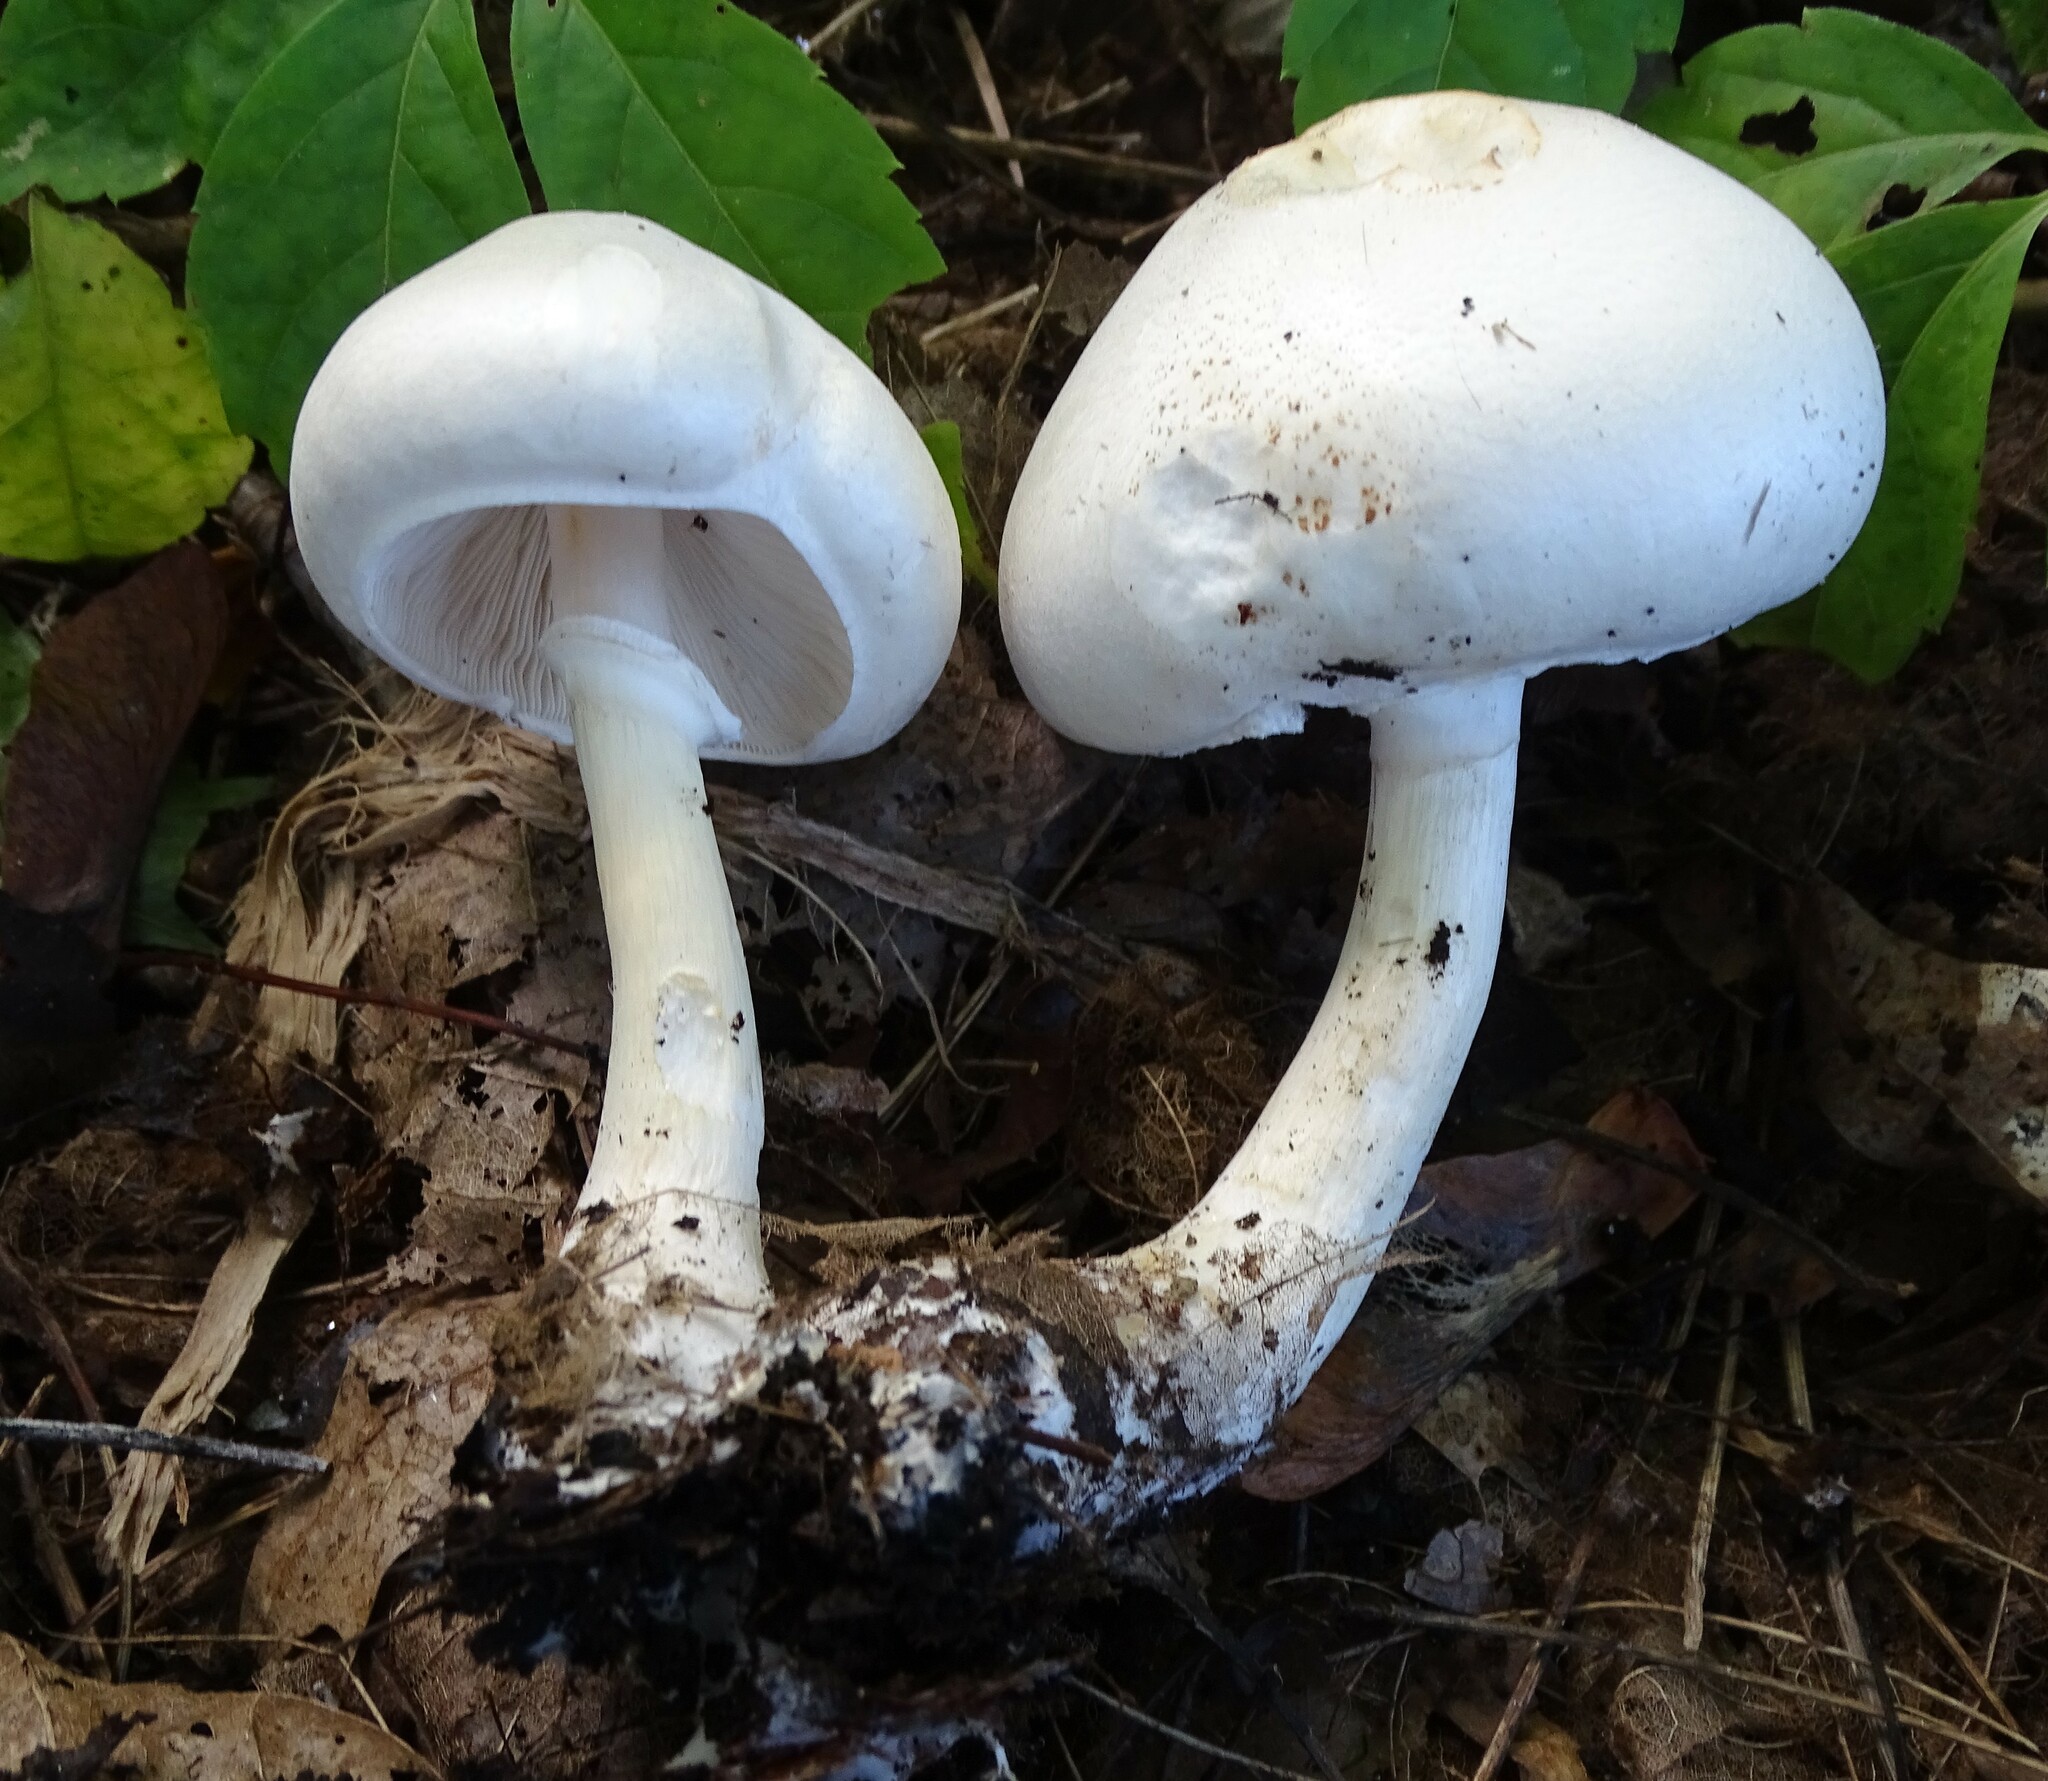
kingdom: Fungi
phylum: Basidiomycota
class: Agaricomycetes
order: Agaricales
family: Agaricaceae
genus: Leucoagaricus
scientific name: Leucoagaricus leucothites
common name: White dapperling
